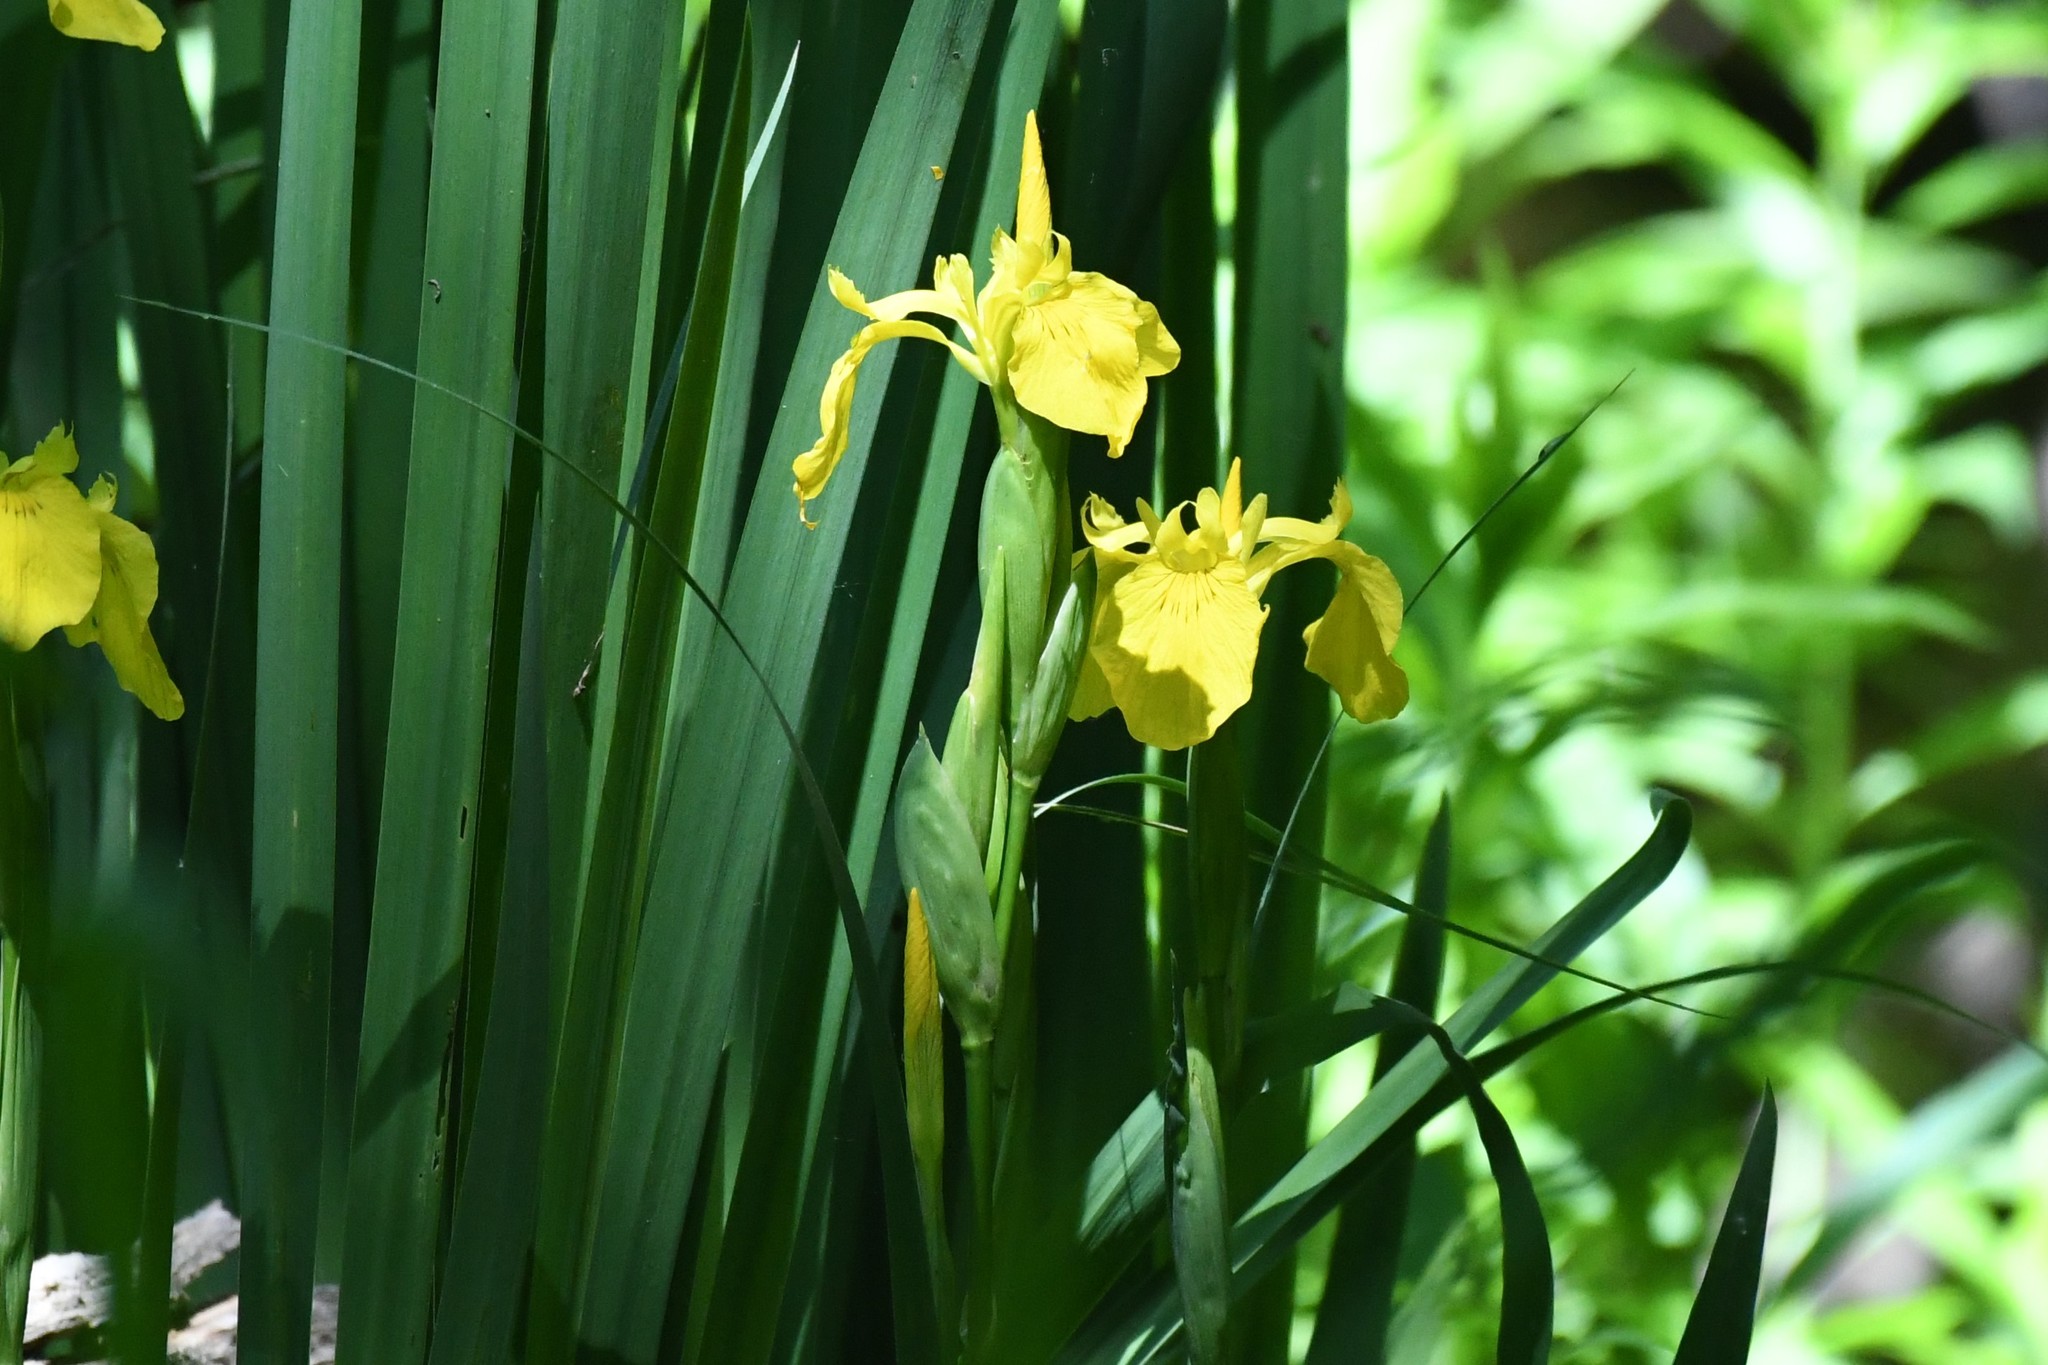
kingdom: Plantae
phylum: Tracheophyta
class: Liliopsida
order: Asparagales
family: Iridaceae
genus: Iris
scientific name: Iris pseudacorus
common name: Yellow flag
